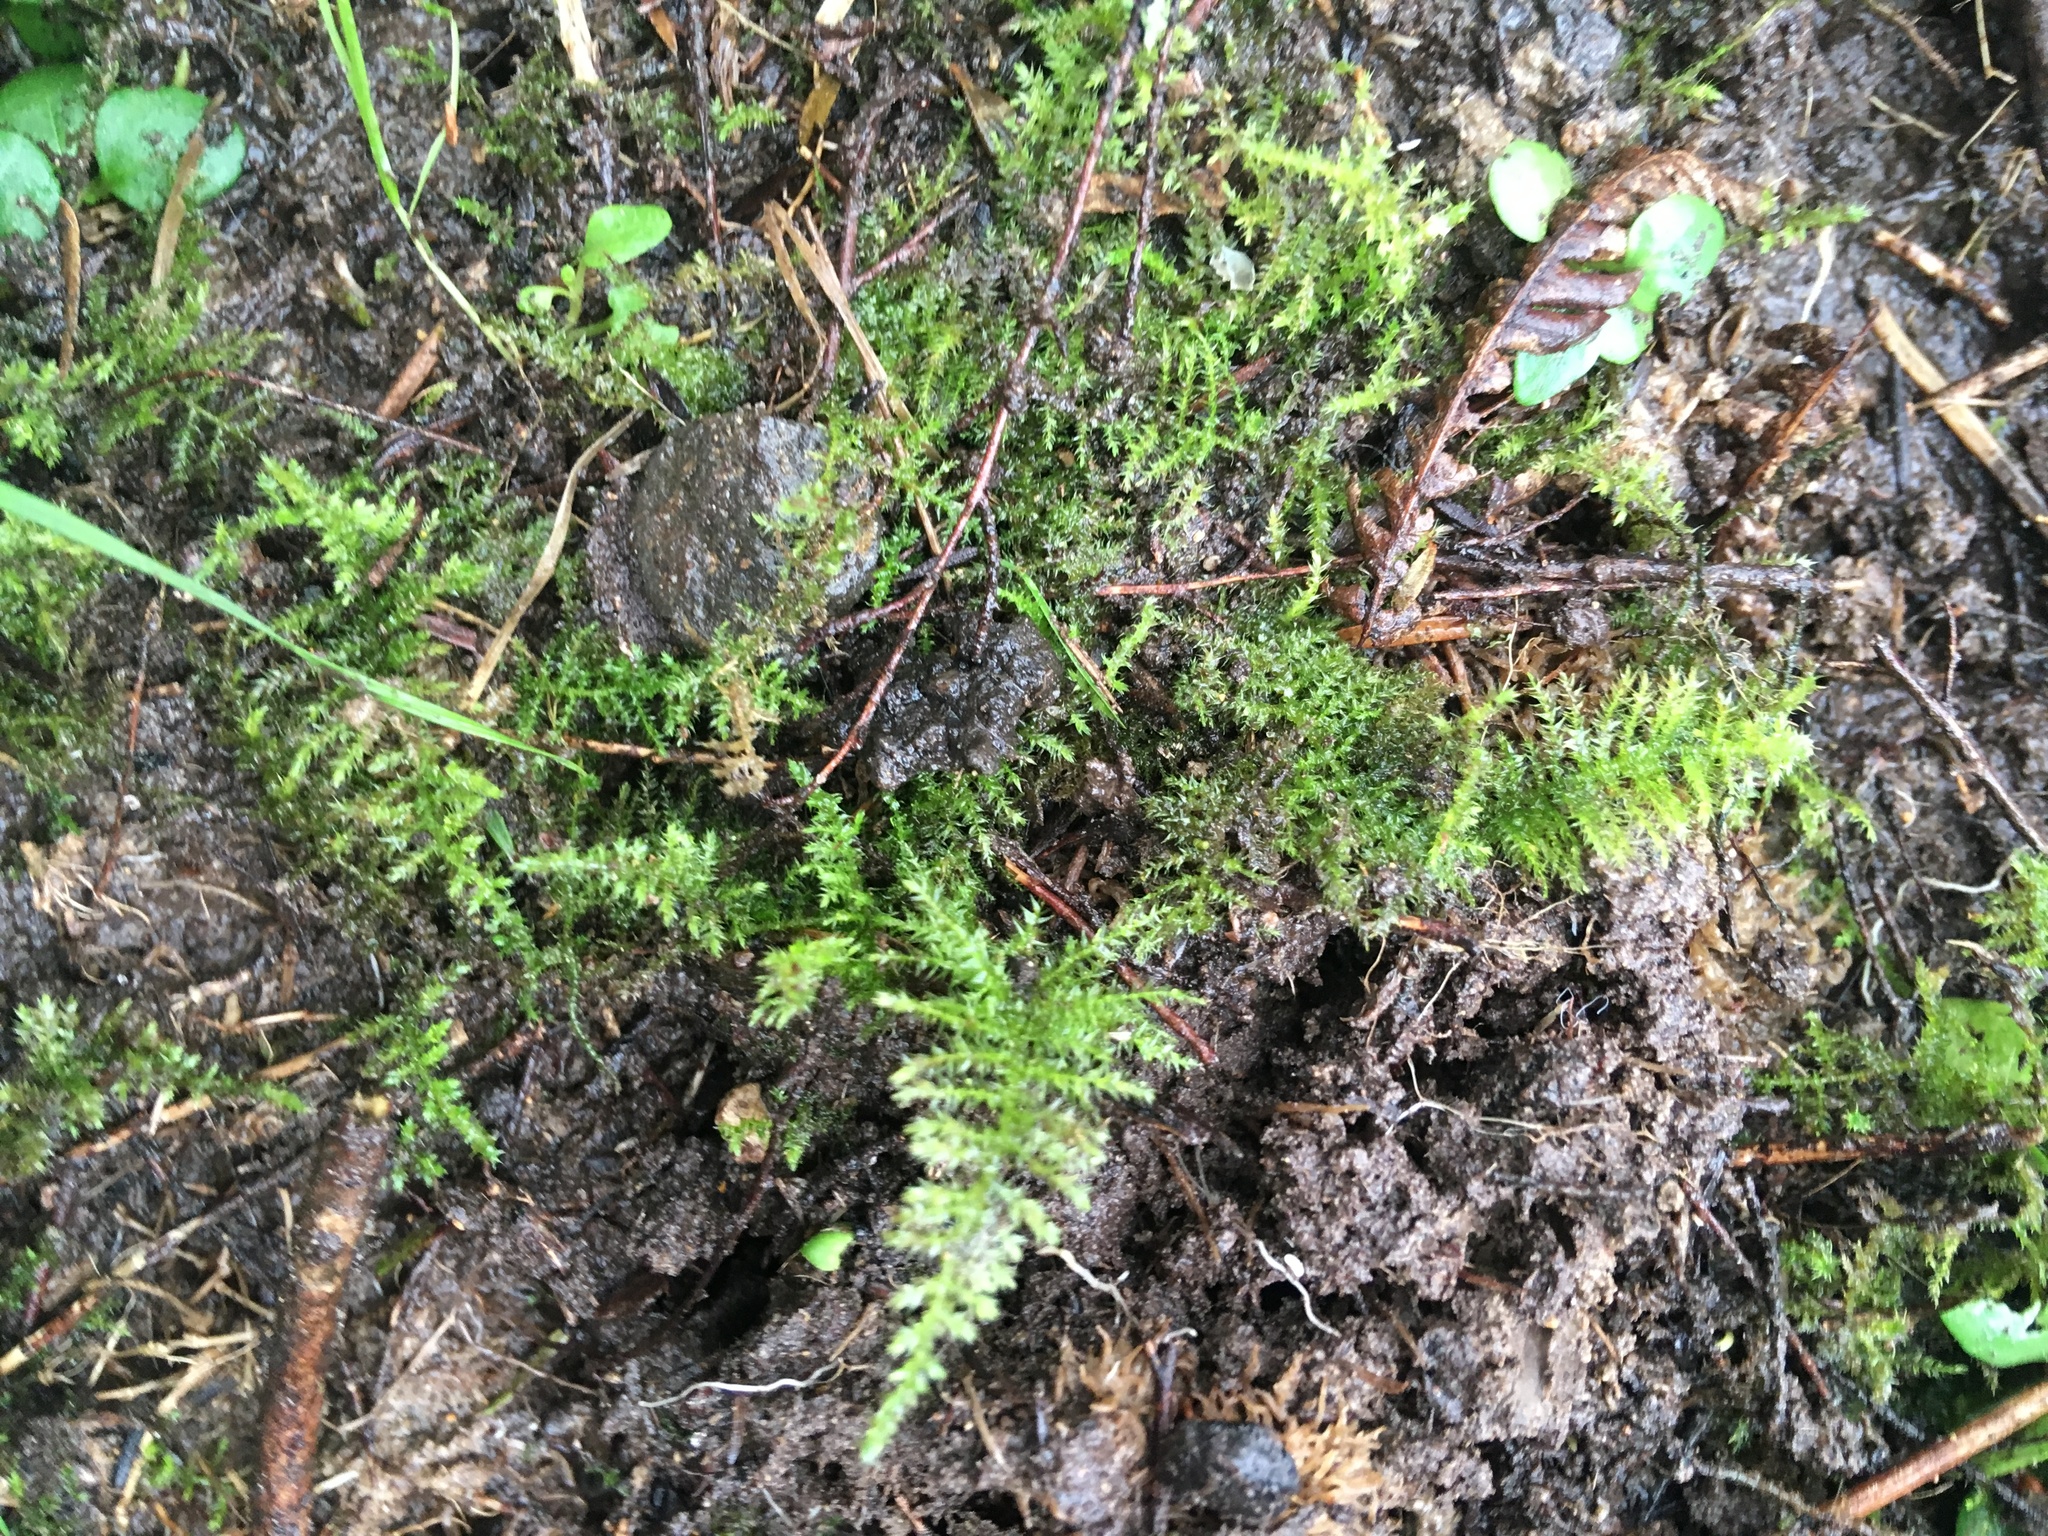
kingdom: Plantae
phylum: Bryophyta
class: Bryopsida
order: Hypnales
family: Brachytheciaceae
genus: Kindbergia
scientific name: Kindbergia praelonga
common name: Slender beaked moss
